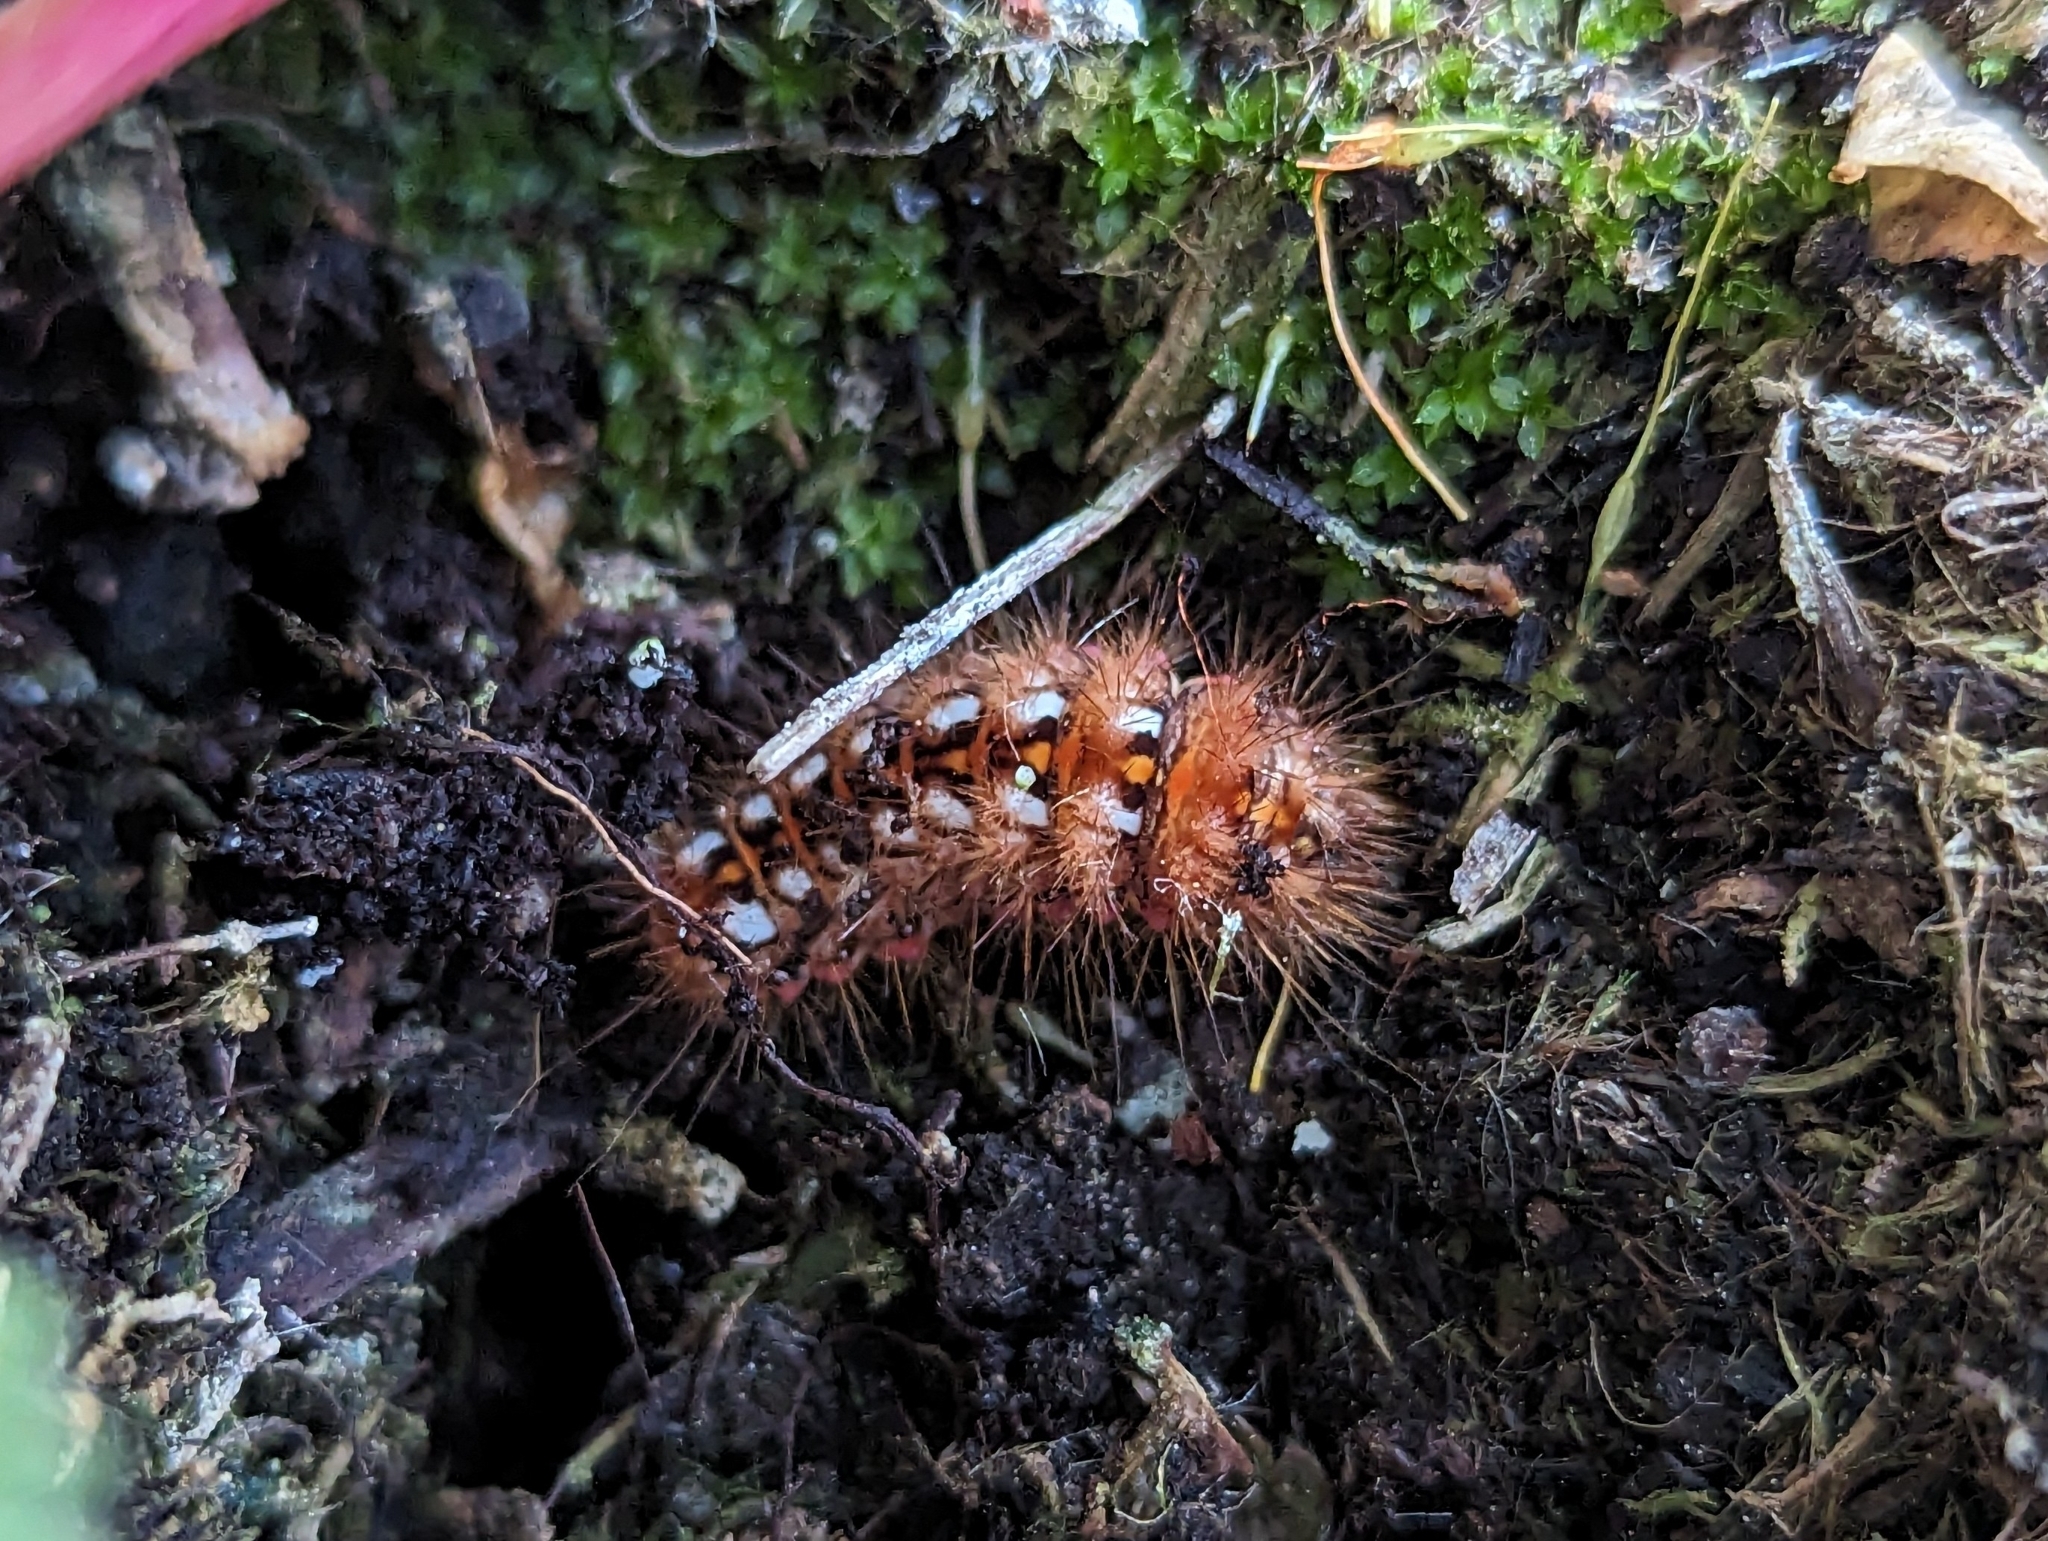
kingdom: Animalia
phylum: Arthropoda
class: Insecta
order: Lepidoptera
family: Noctuidae
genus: Acronicta
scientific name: Acronicta rumicis
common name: Knot grass
